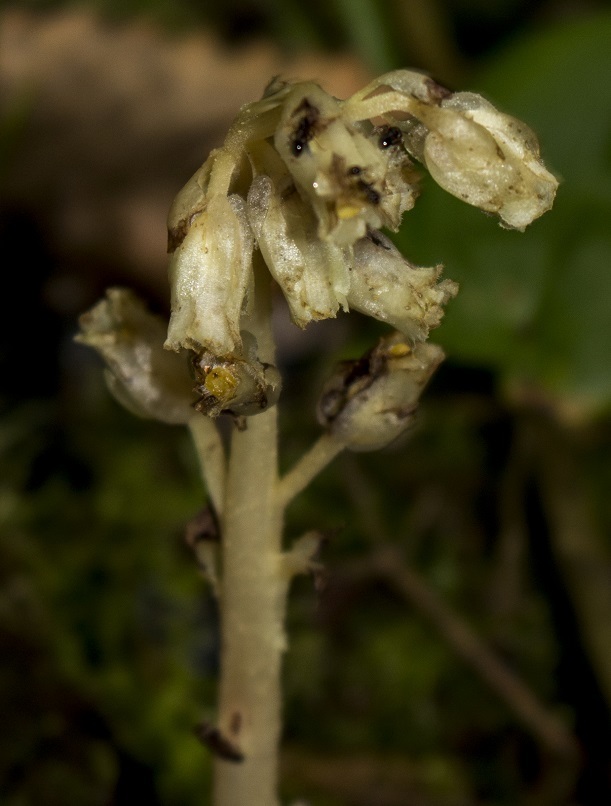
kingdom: Plantae
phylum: Tracheophyta
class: Magnoliopsida
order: Ericales
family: Ericaceae
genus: Hypopitys
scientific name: Hypopitys monotropa
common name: Yellow bird's-nest
